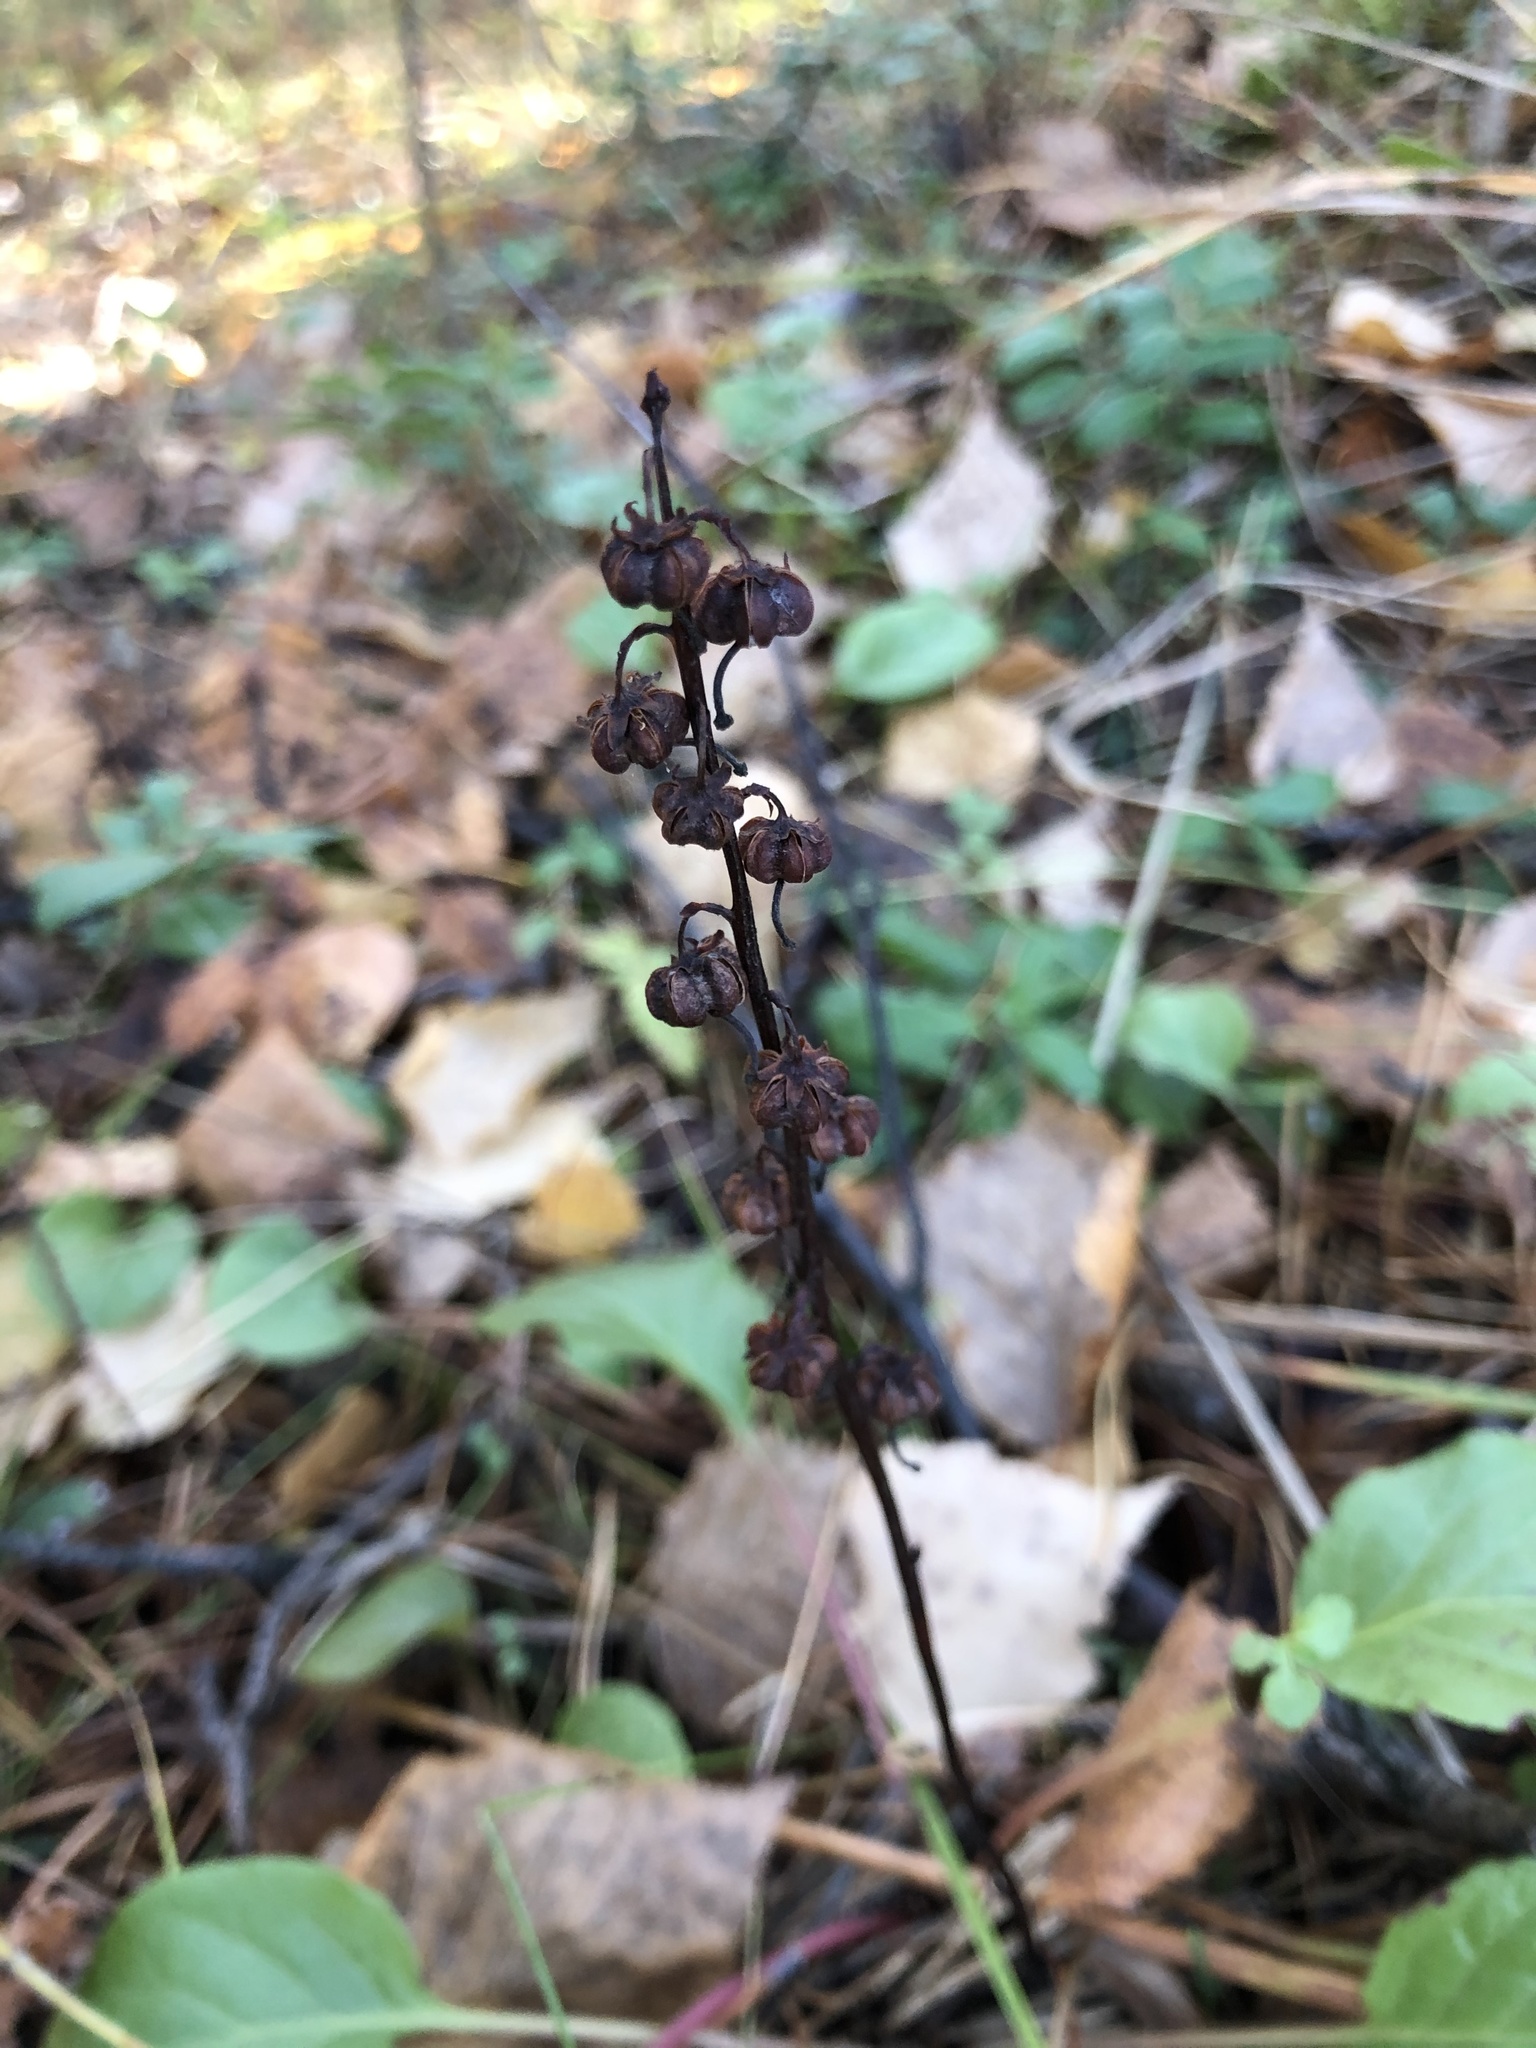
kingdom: Plantae
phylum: Tracheophyta
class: Magnoliopsida
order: Ericales
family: Ericaceae
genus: Pyrola
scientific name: Pyrola rotundifolia
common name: Round-leaved wintergreen
